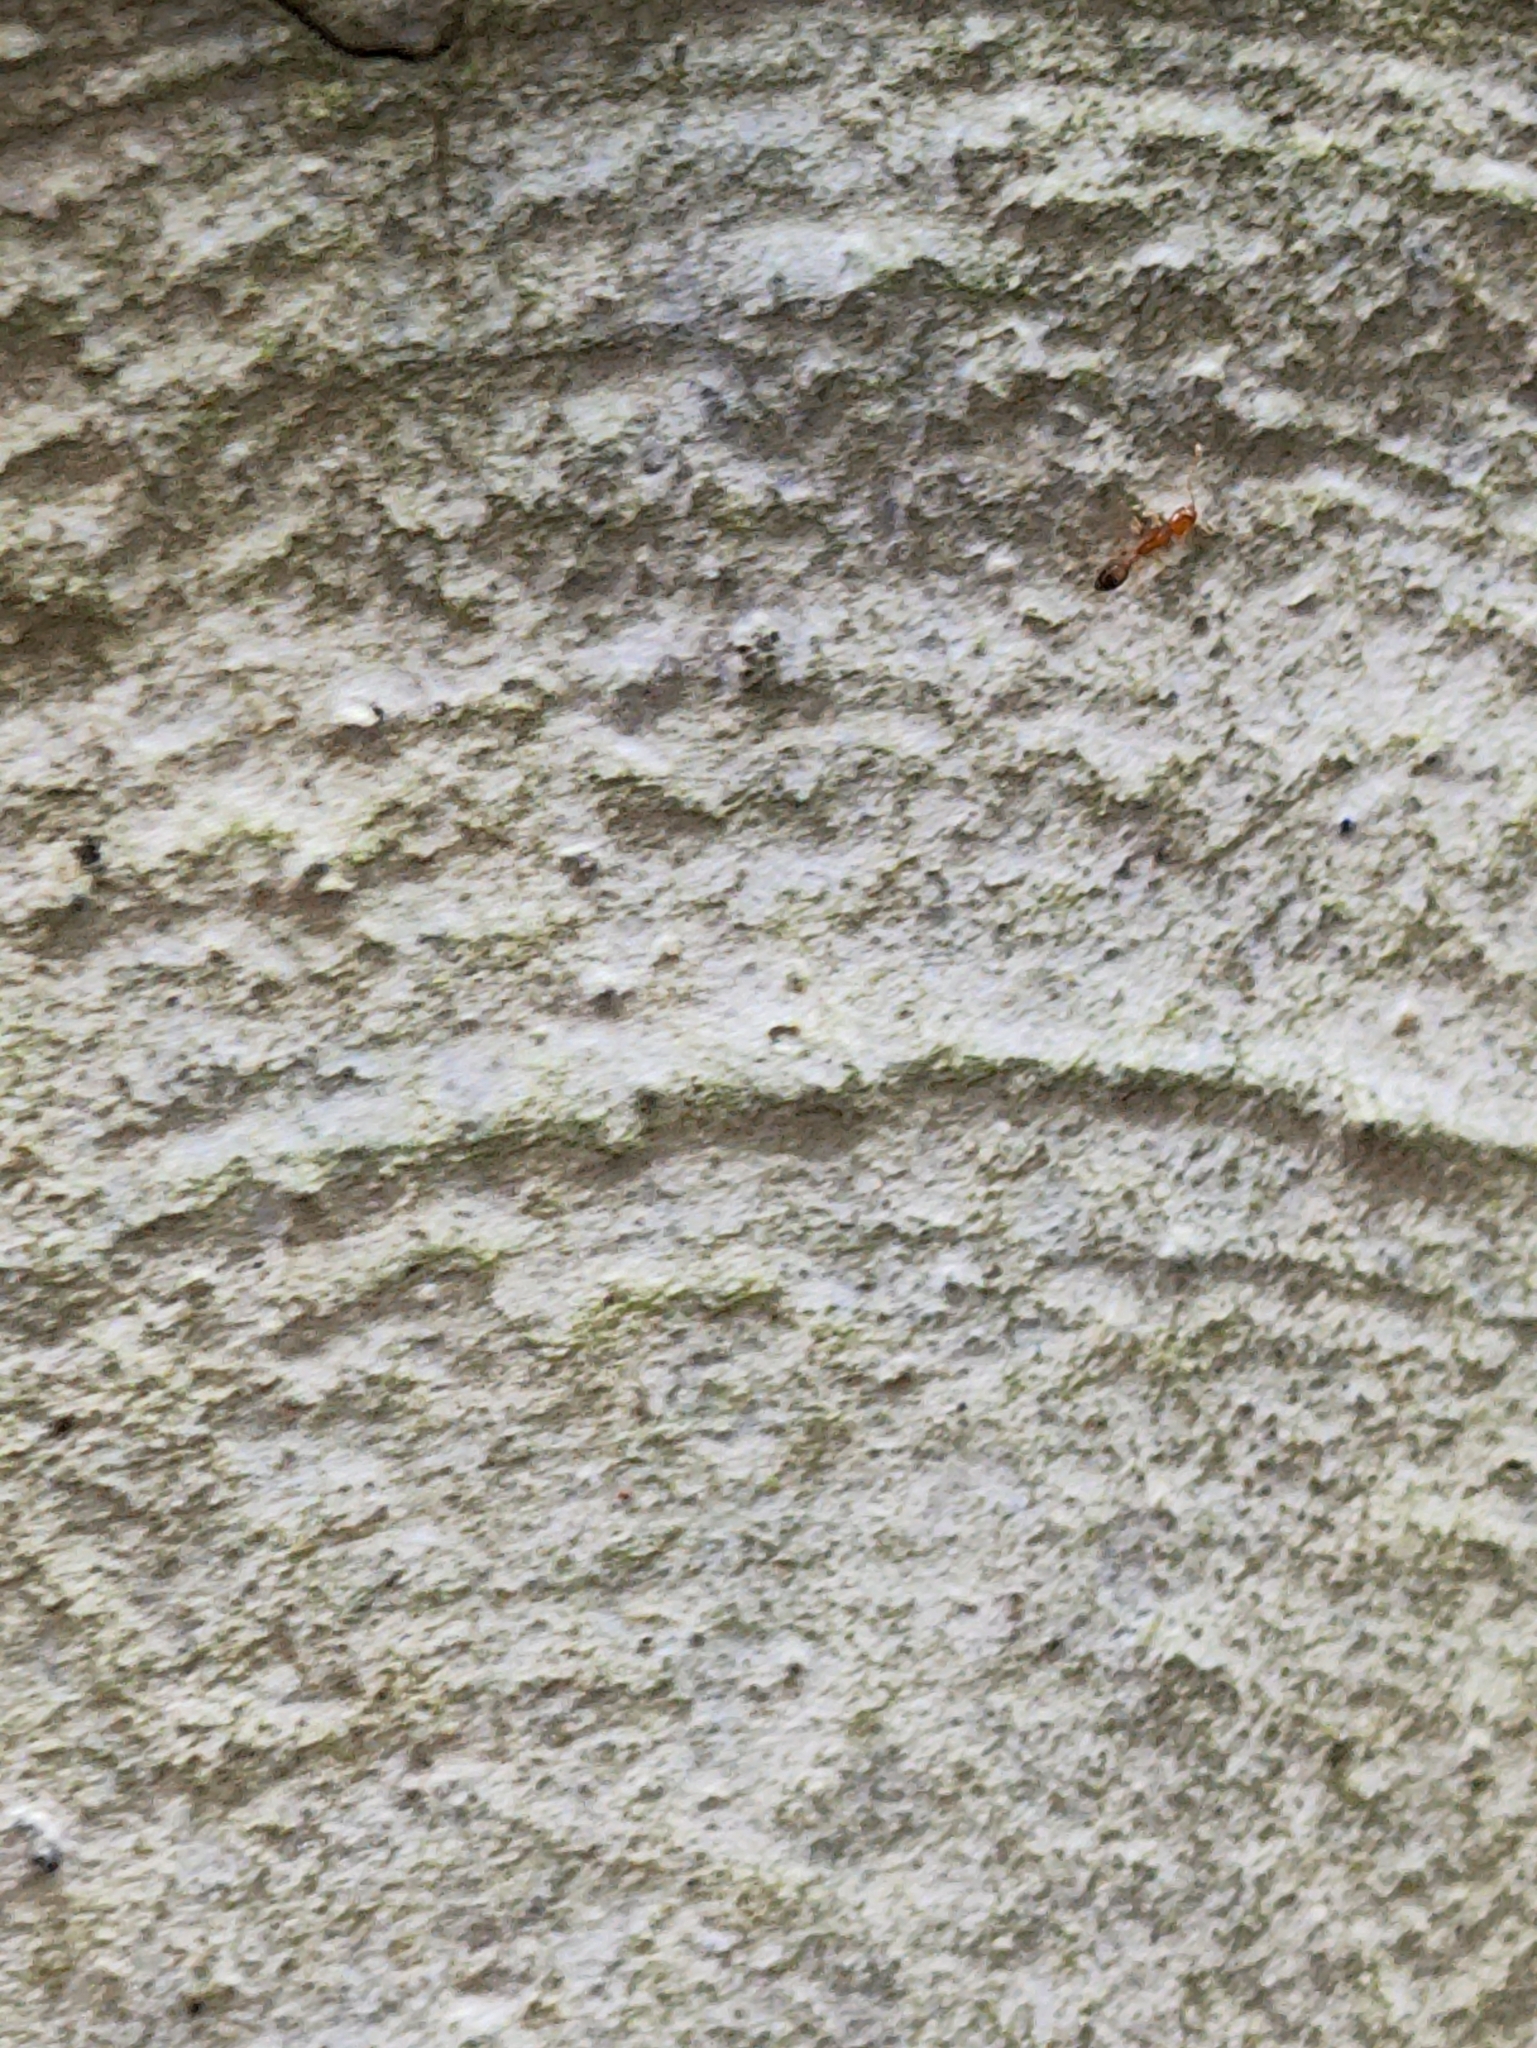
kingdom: Animalia
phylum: Arthropoda
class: Insecta
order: Hymenoptera
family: Formicidae
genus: Monomorium
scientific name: Monomorium destructor
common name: Destructive trailing ant
